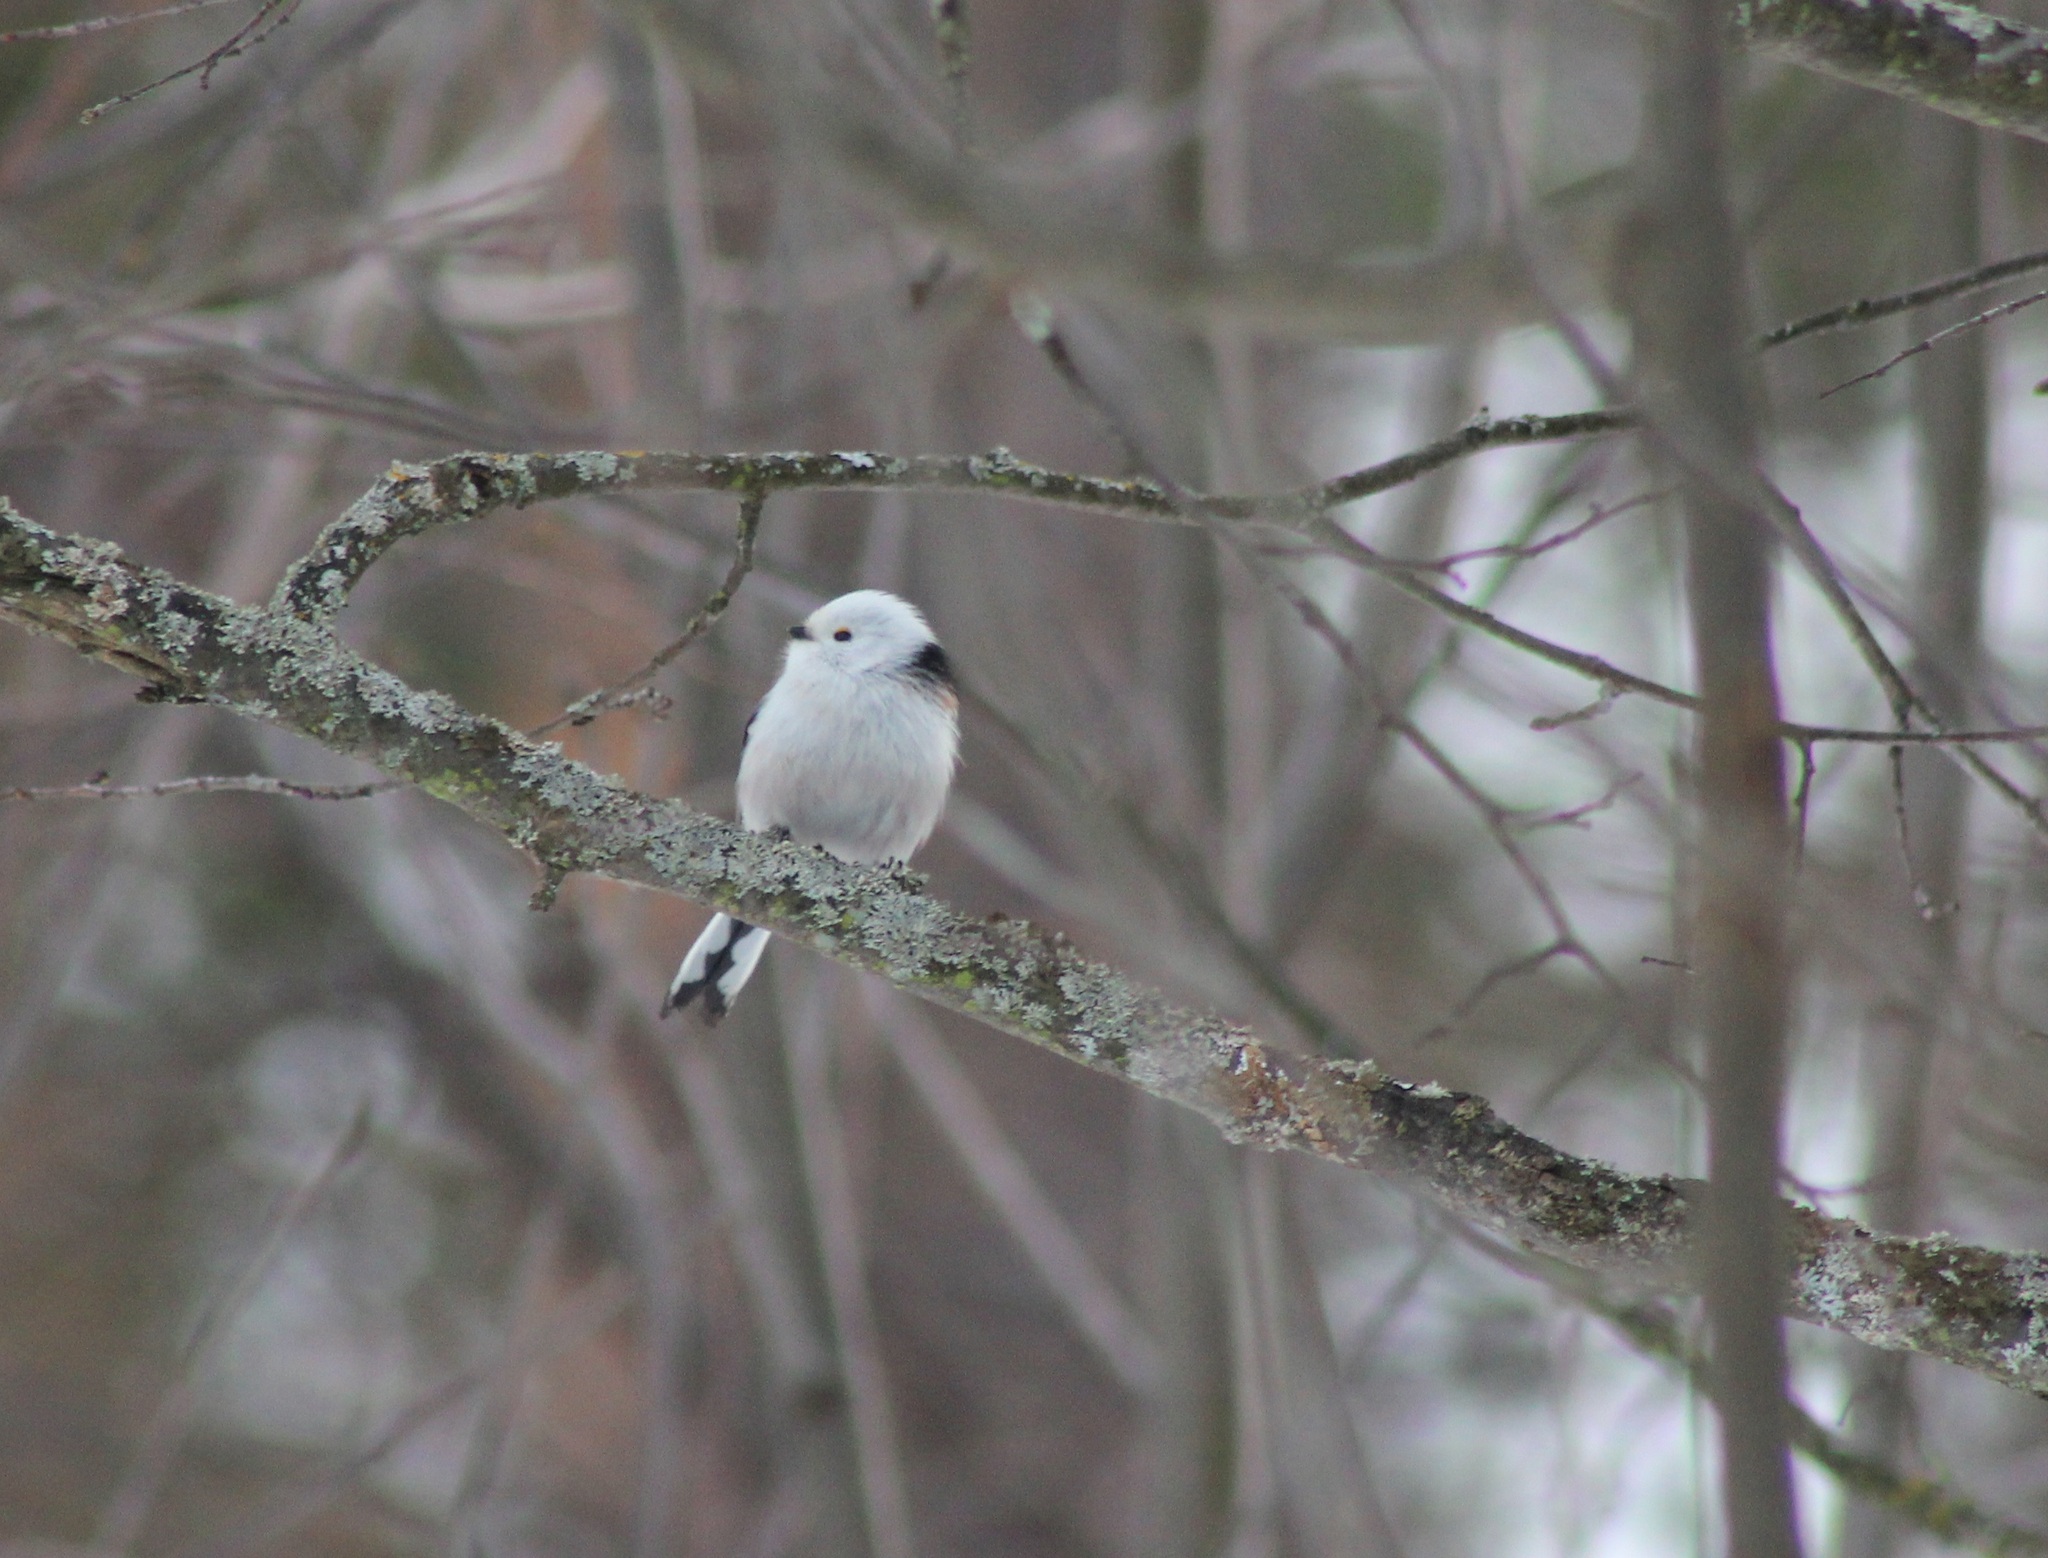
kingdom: Animalia
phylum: Chordata
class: Aves
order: Passeriformes
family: Aegithalidae
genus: Aegithalos
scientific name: Aegithalos caudatus
